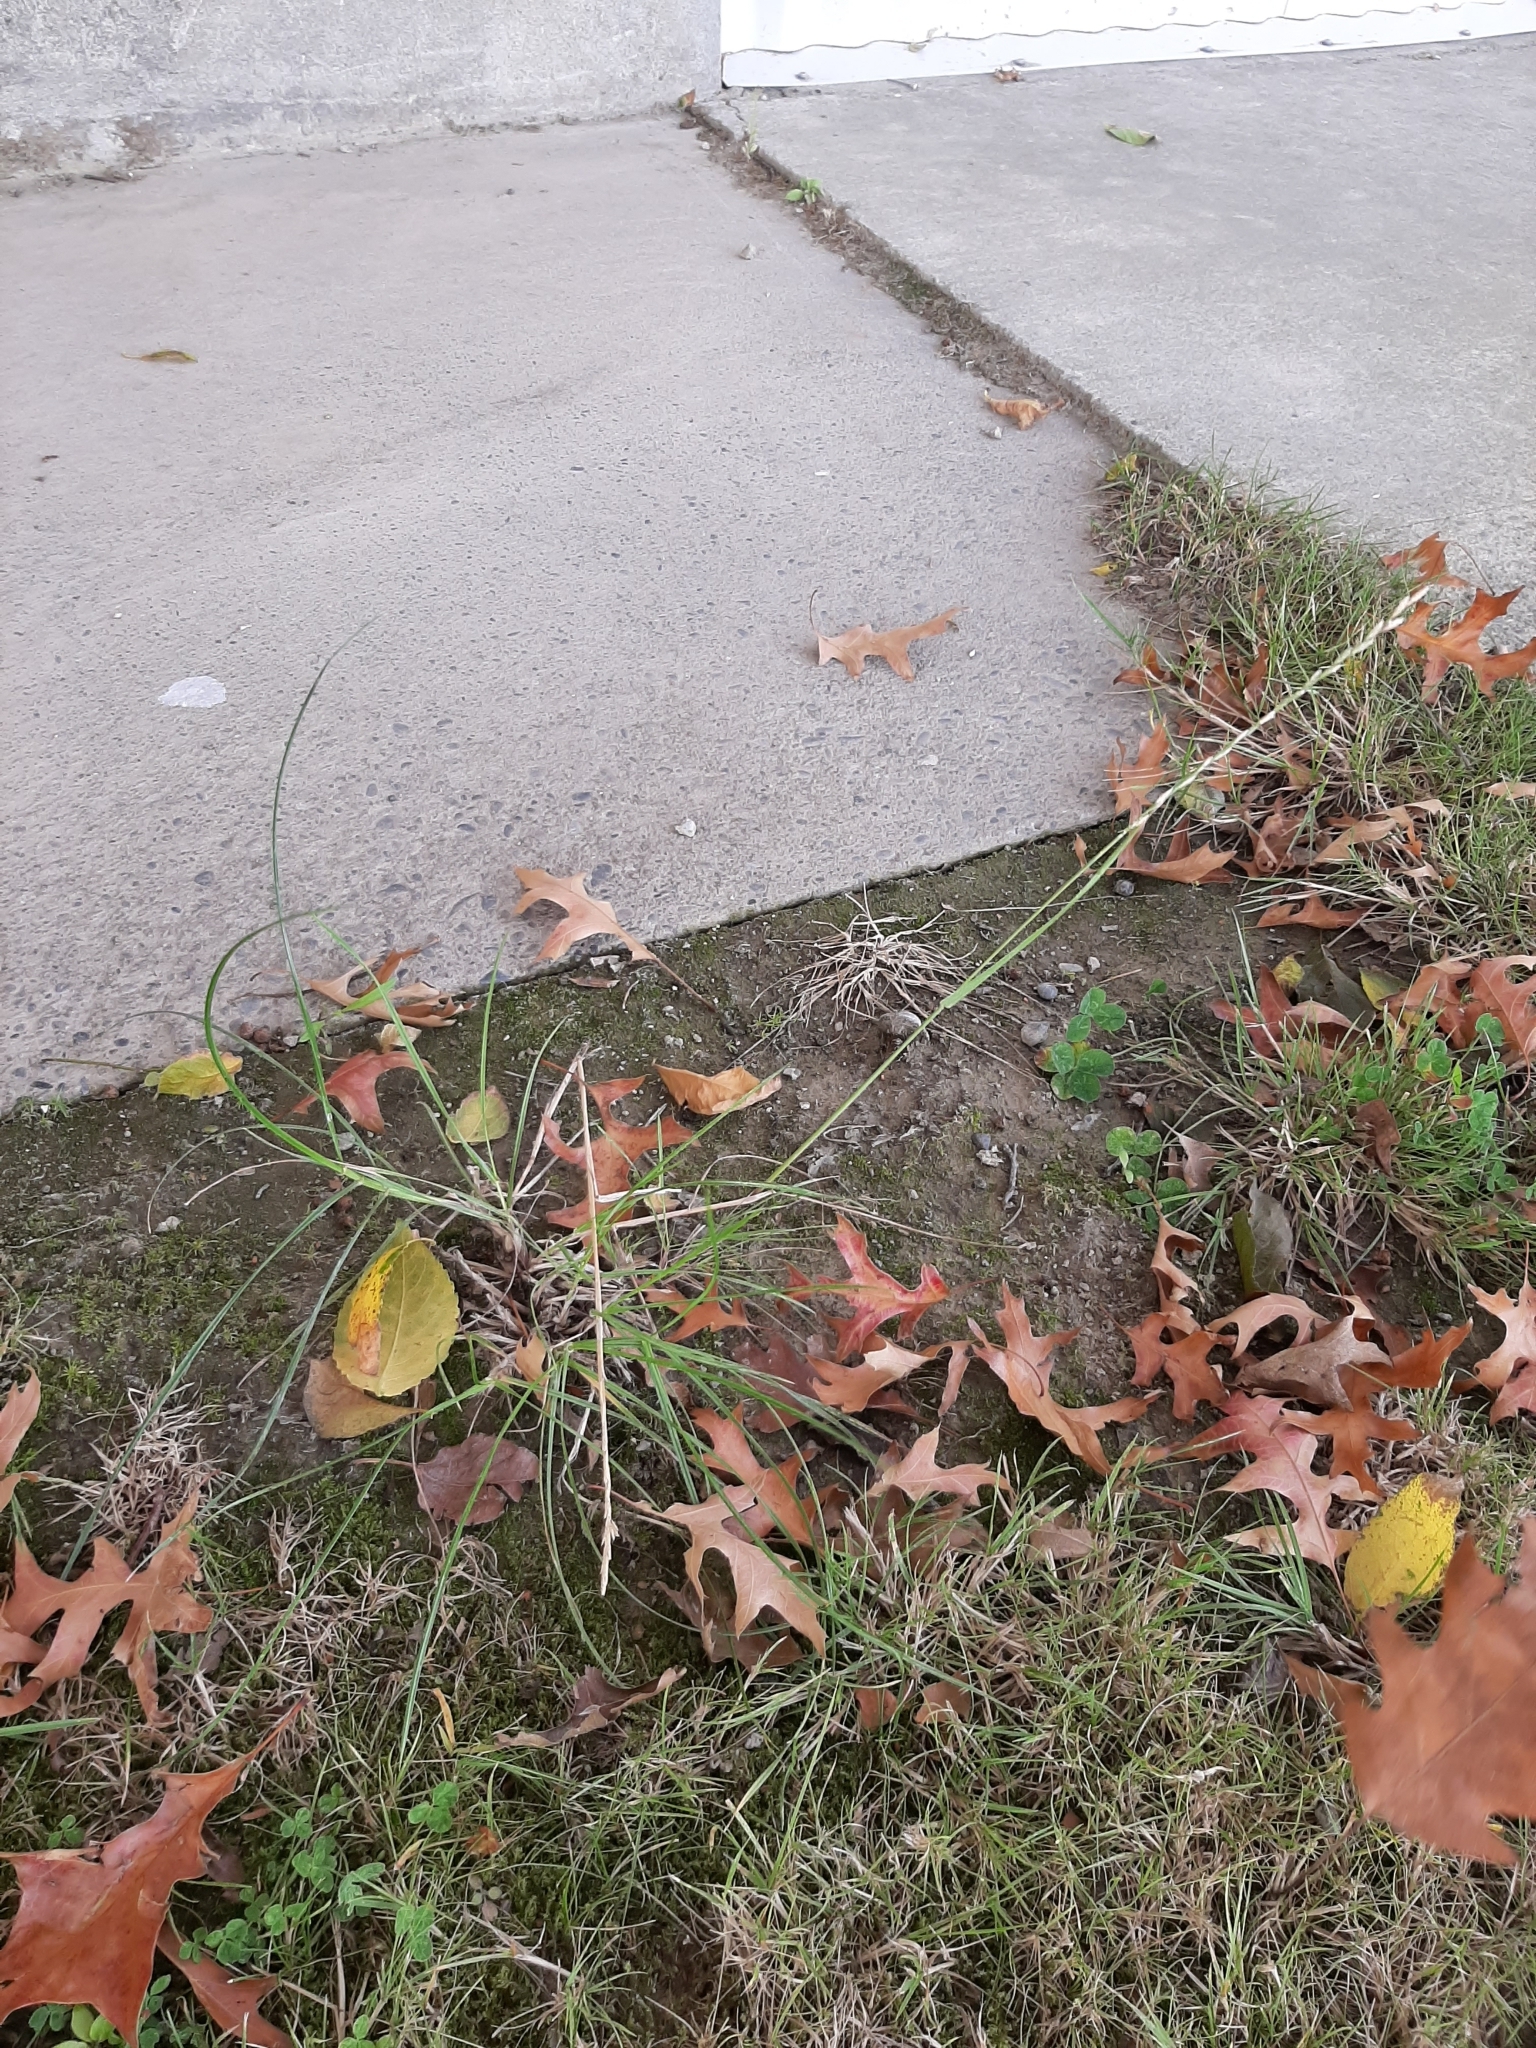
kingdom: Plantae
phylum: Tracheophyta
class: Liliopsida
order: Poales
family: Poaceae
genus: Lolium
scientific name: Lolium perenne
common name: Perennial ryegrass
